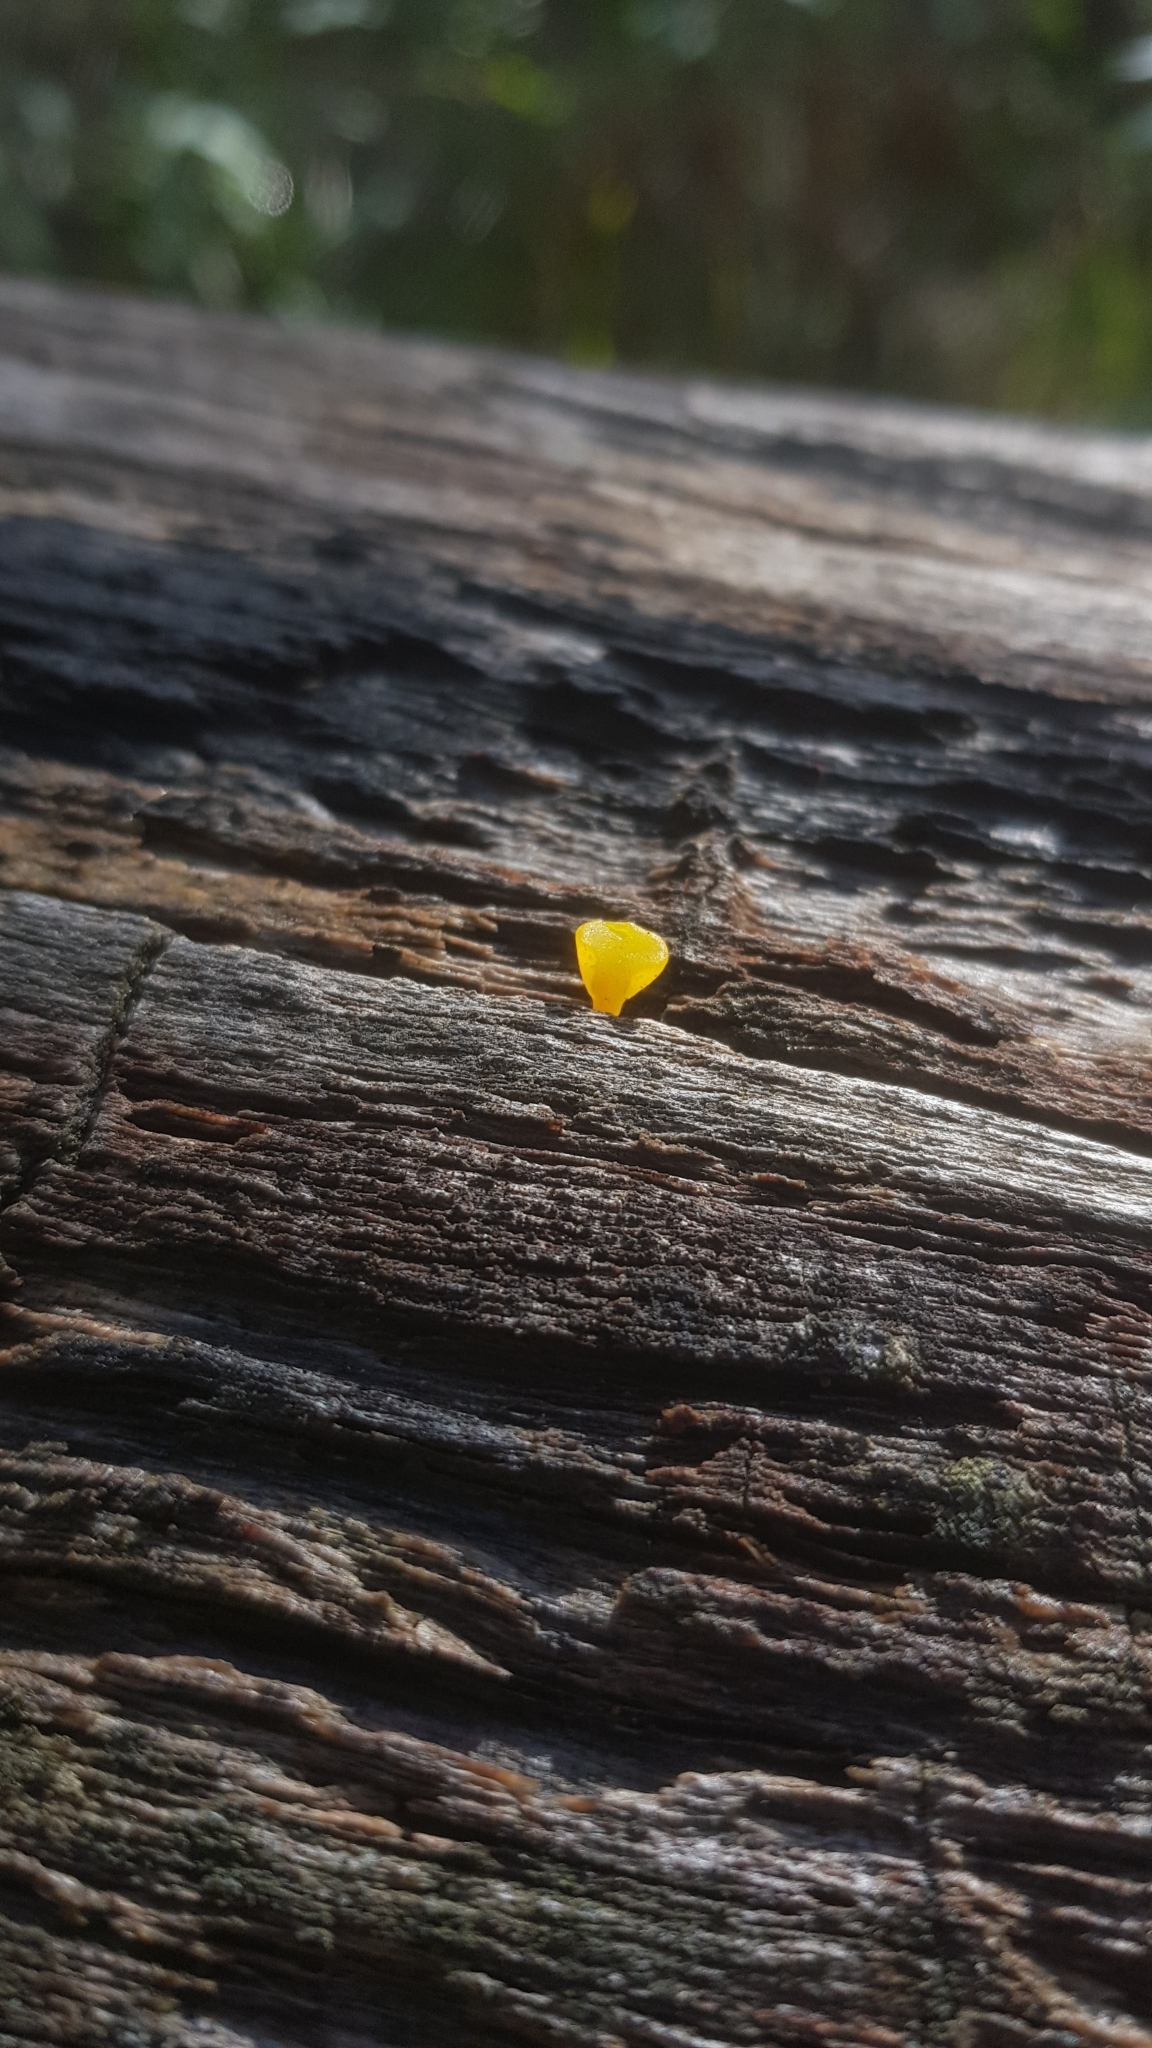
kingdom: Fungi
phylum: Basidiomycota
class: Dacrymycetes
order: Dacrymycetales
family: Dacrymycetaceae
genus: Dacrymyces
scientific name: Dacrymyces spathularius
